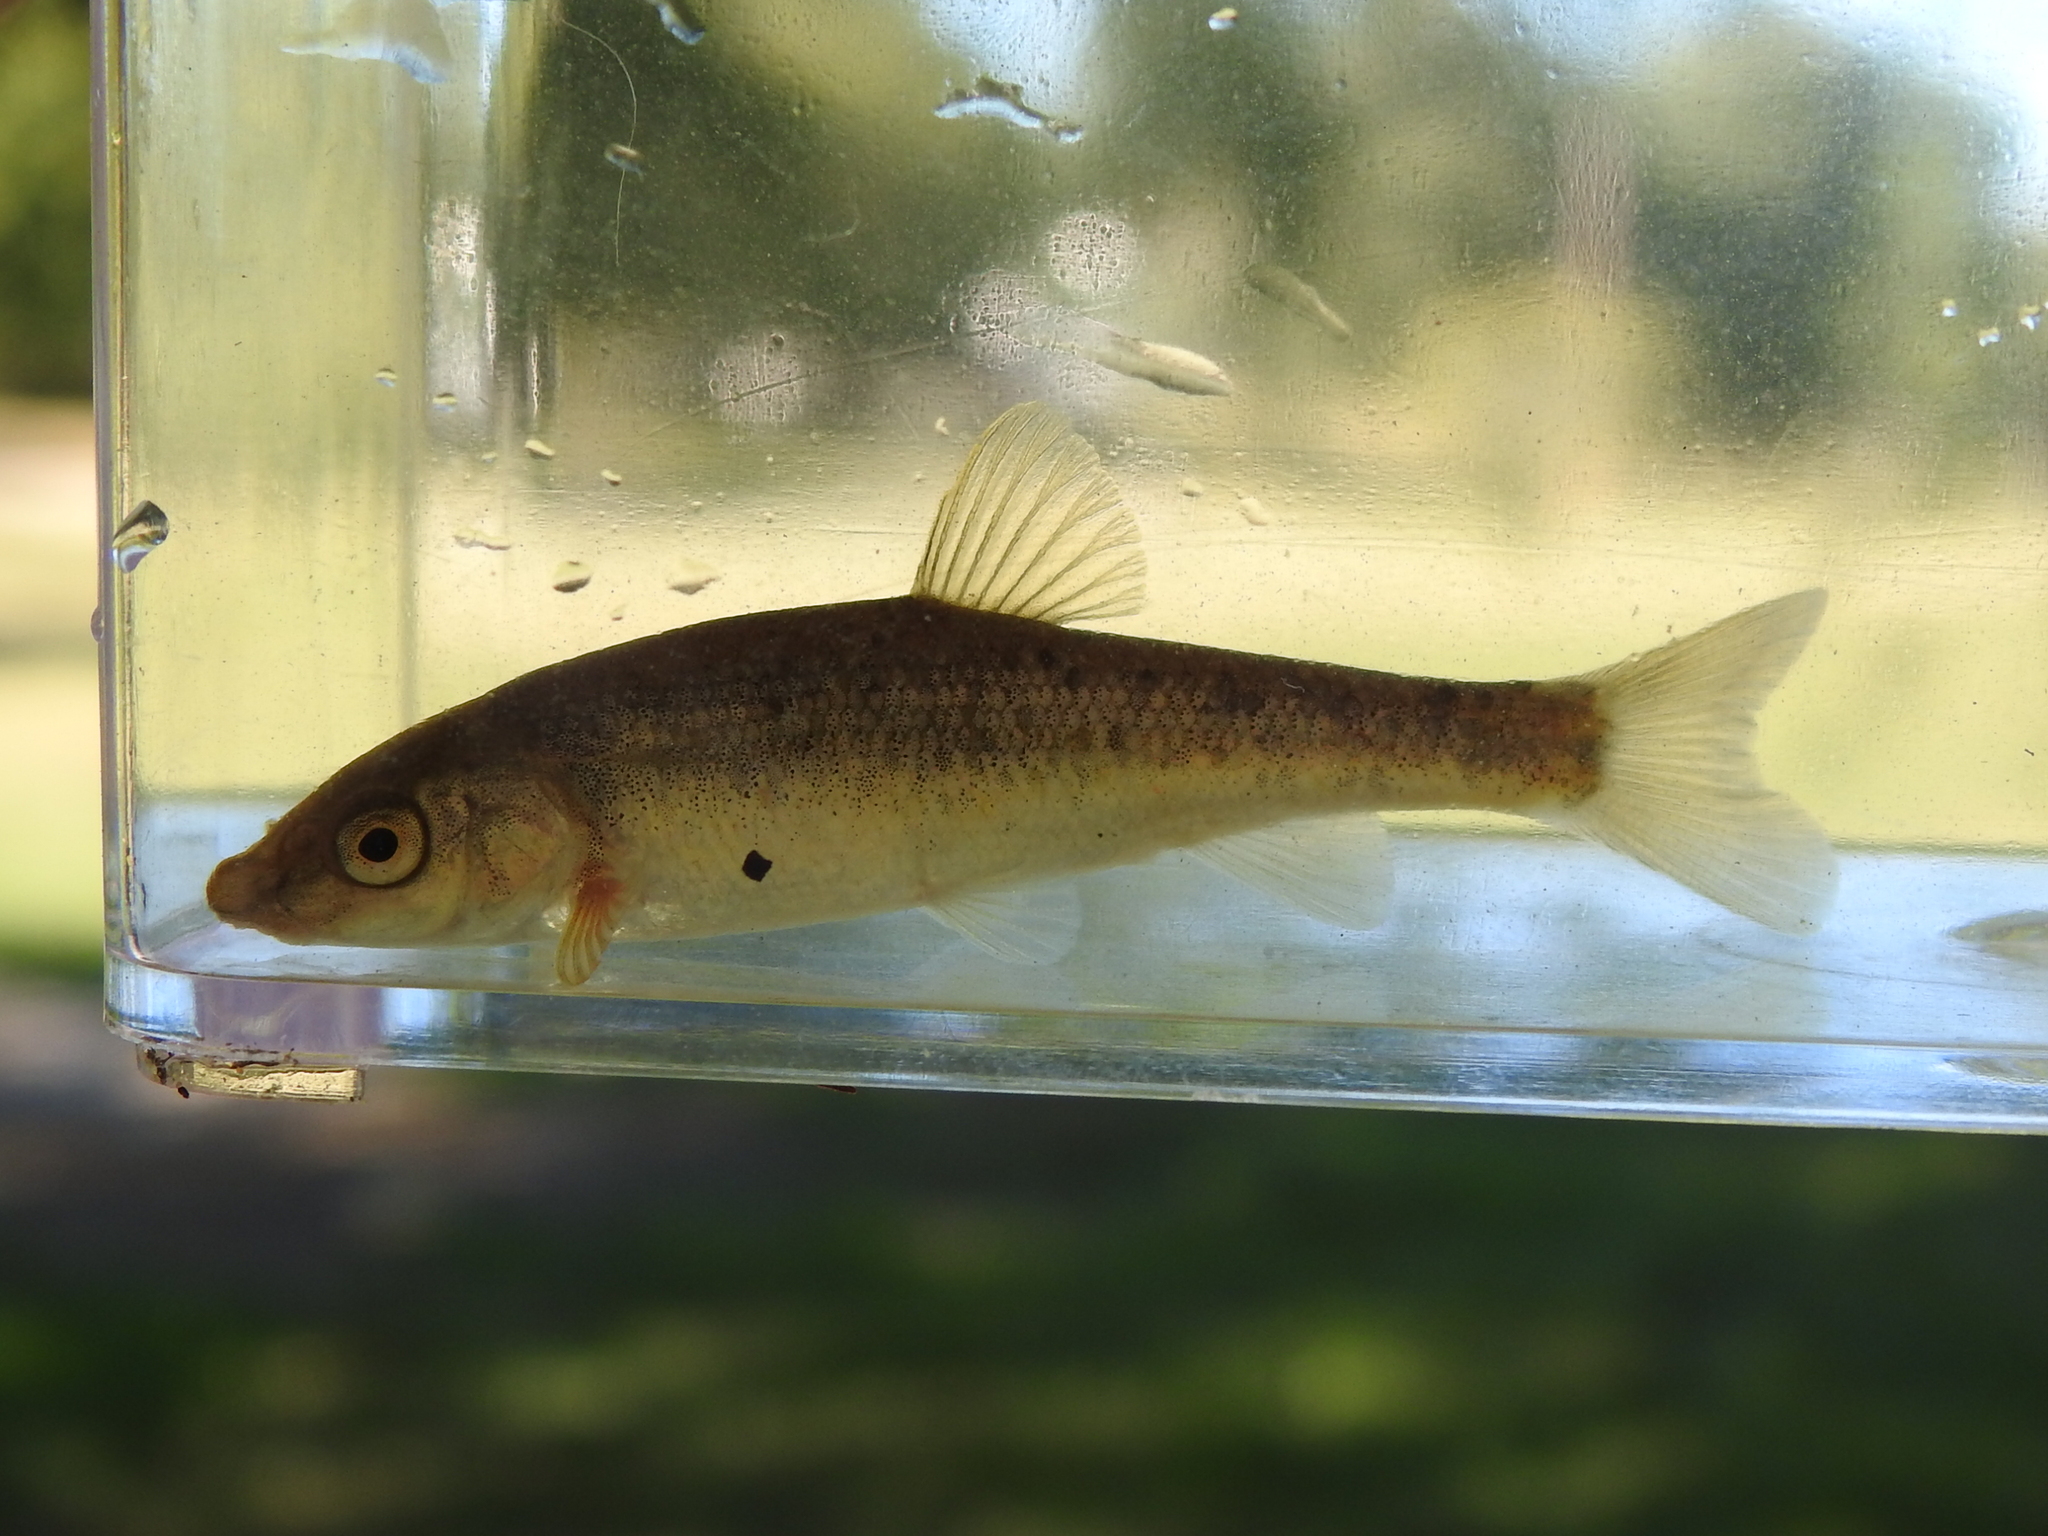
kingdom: Animalia
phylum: Chordata
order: Cypriniformes
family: Cyprinidae
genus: Campostoma
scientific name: Campostoma anomalum
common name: Central stoneroller
